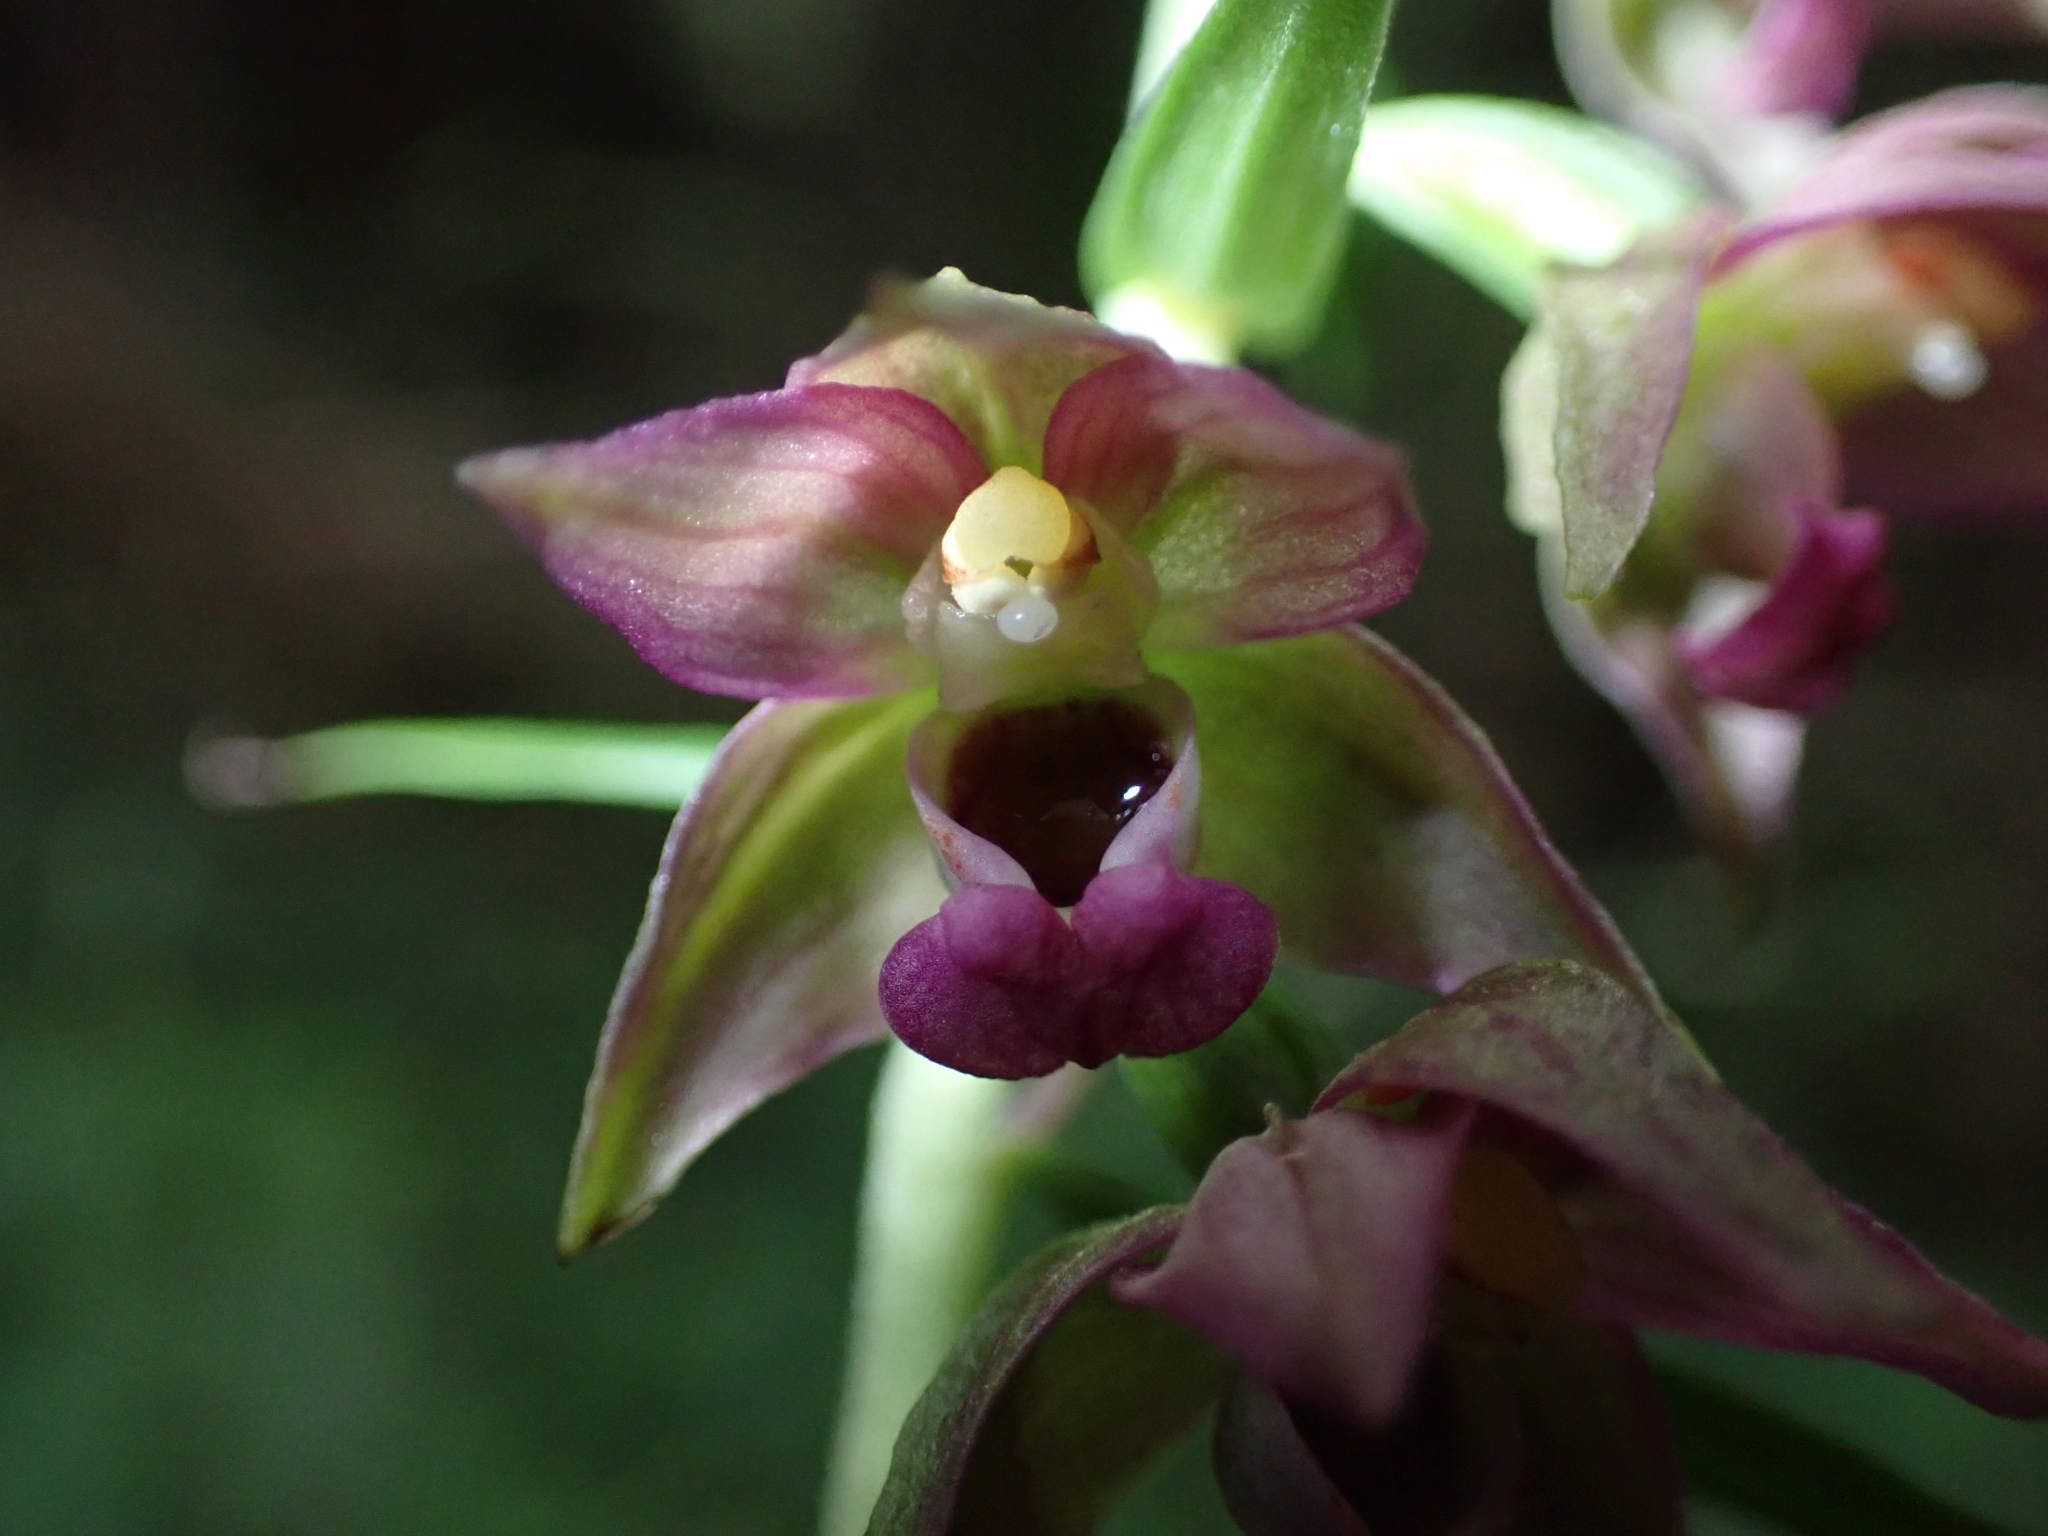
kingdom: Plantae
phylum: Tracheophyta
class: Liliopsida
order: Asparagales
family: Orchidaceae
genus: Epipactis
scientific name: Epipactis helleborine
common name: Broad-leaved helleborine
